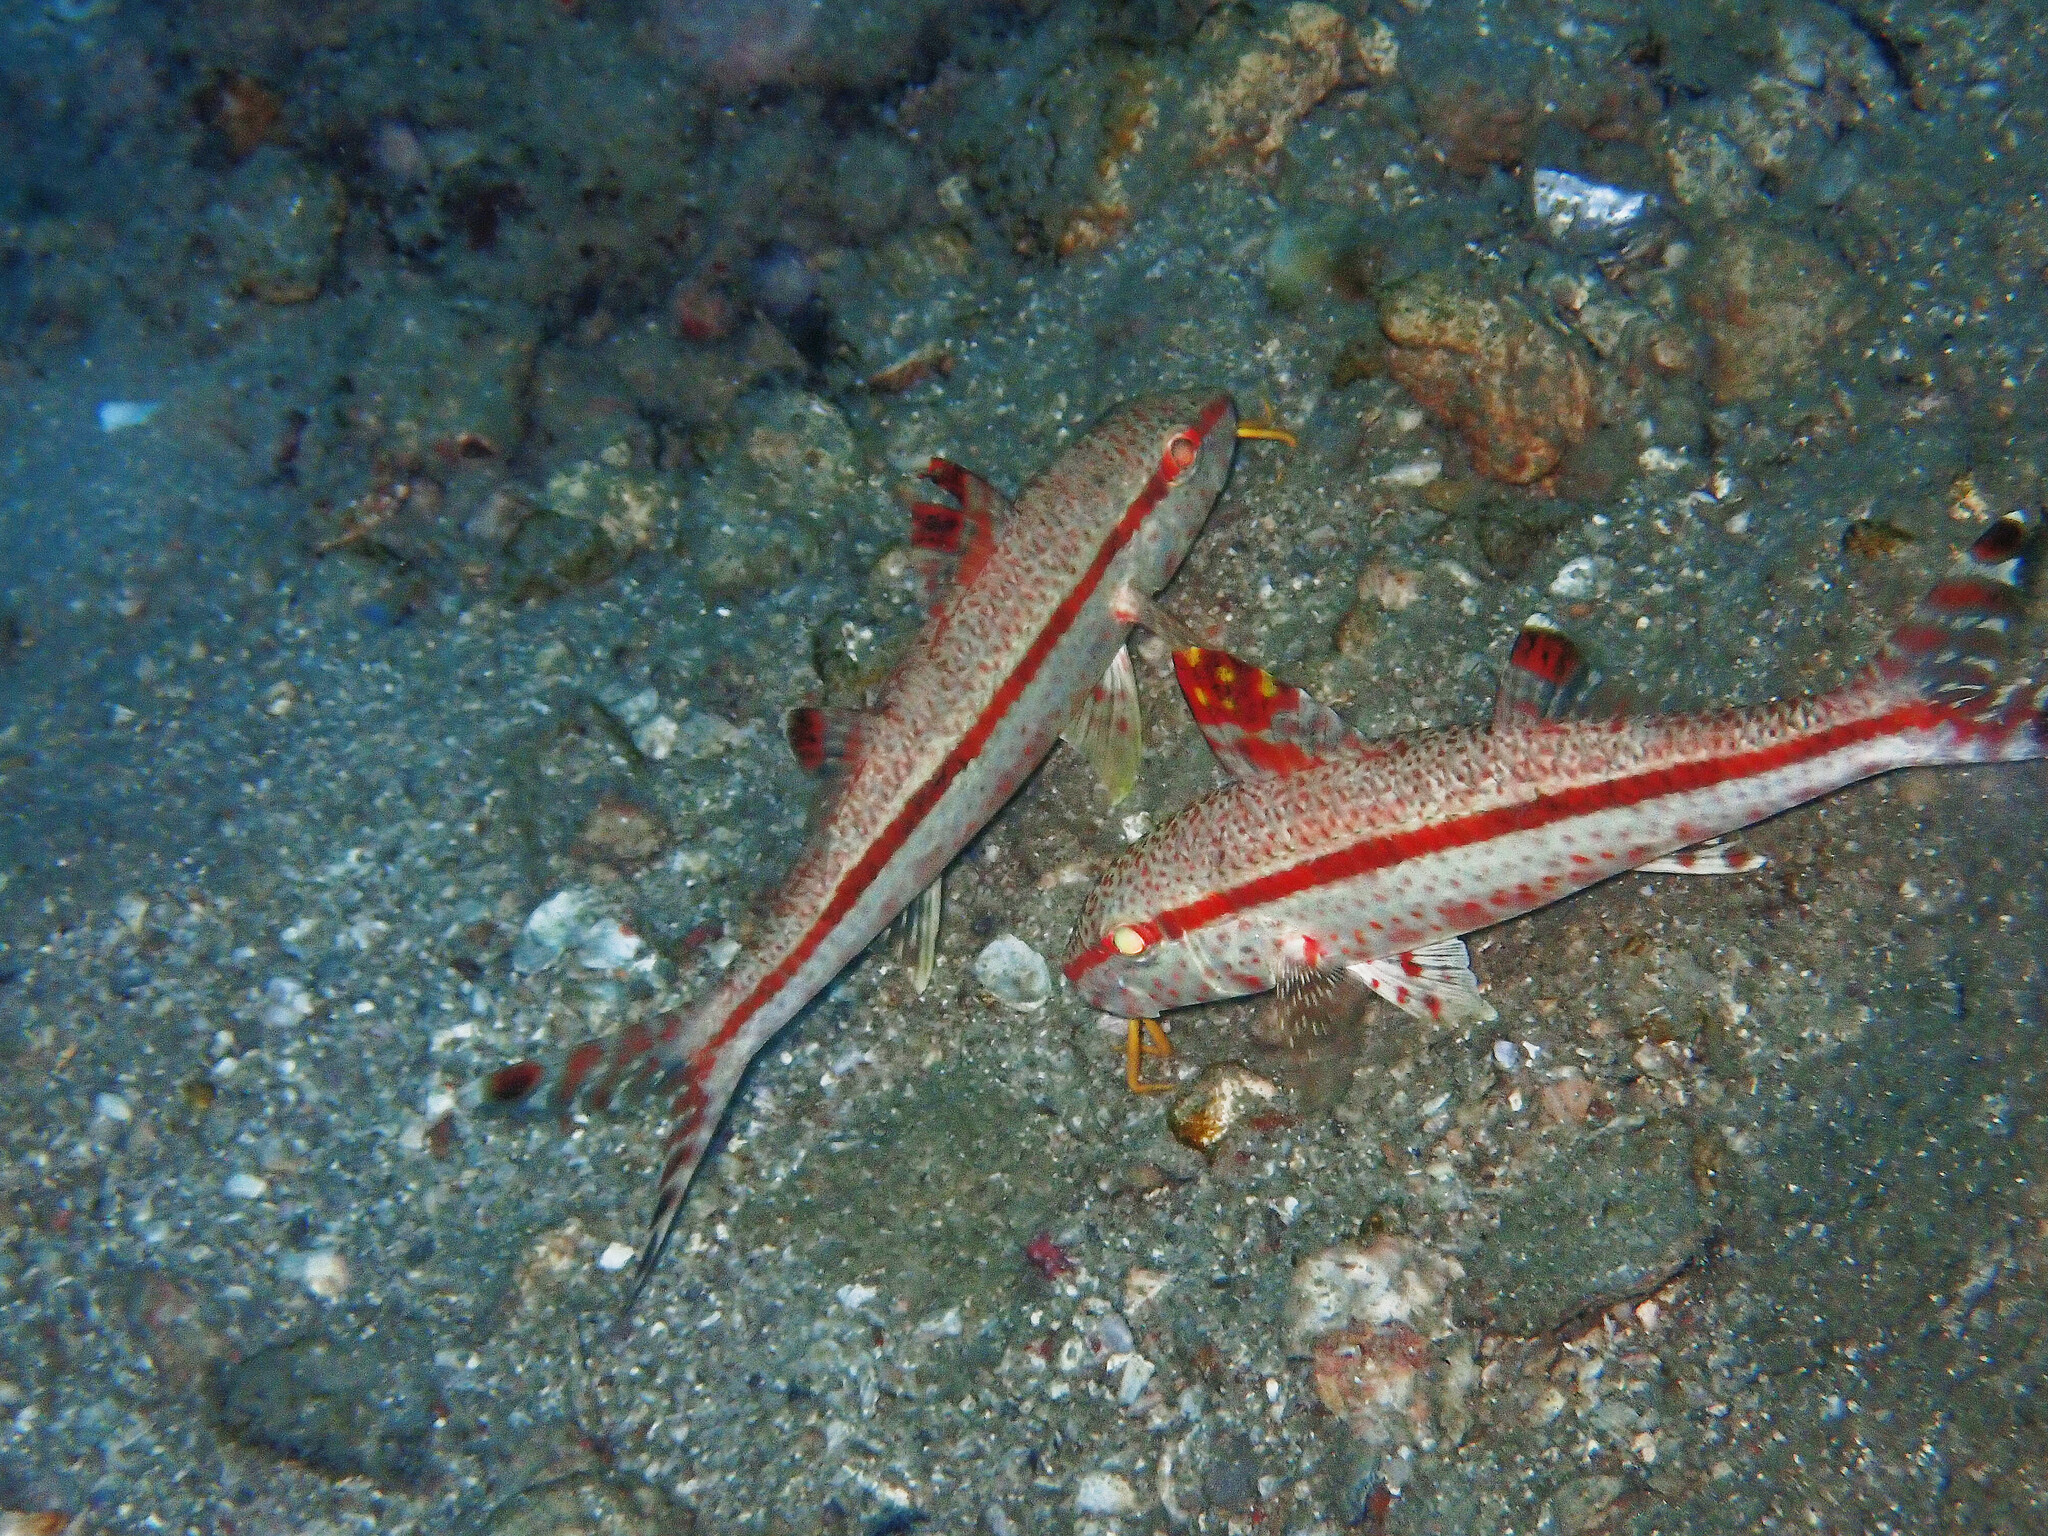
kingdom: Animalia
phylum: Chordata
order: Perciformes
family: Mullidae
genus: Upeneus
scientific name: Upeneus tragula
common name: Freckled goatfish
